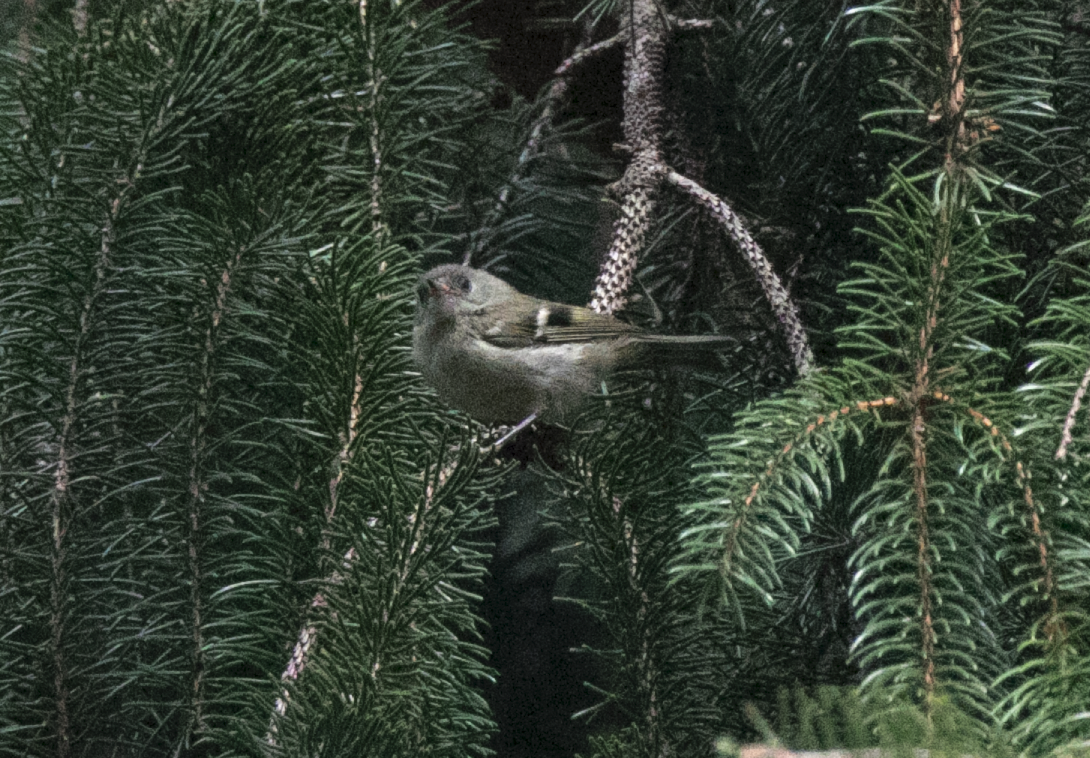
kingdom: Animalia
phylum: Chordata
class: Aves
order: Passeriformes
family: Regulidae
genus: Regulus
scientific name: Regulus regulus
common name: Goldcrest
